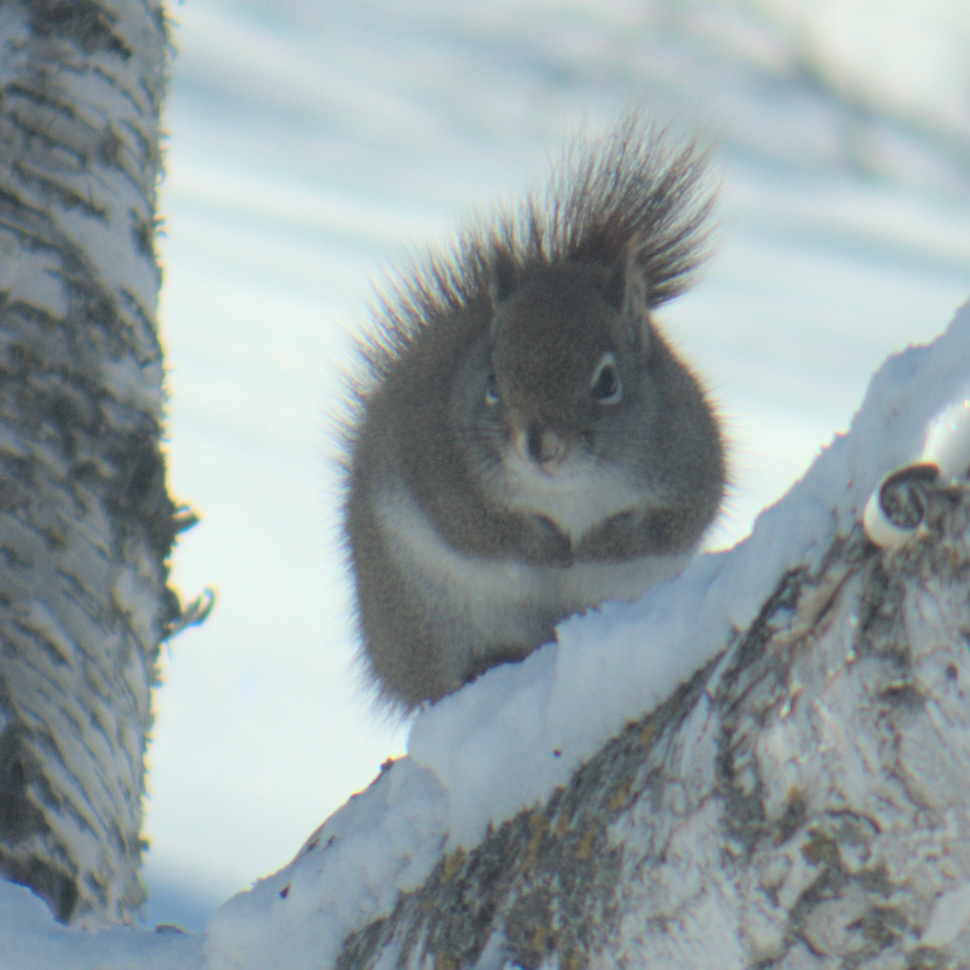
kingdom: Animalia
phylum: Chordata
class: Mammalia
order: Rodentia
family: Sciuridae
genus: Tamiasciurus
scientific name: Tamiasciurus hudsonicus
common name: Red squirrel
